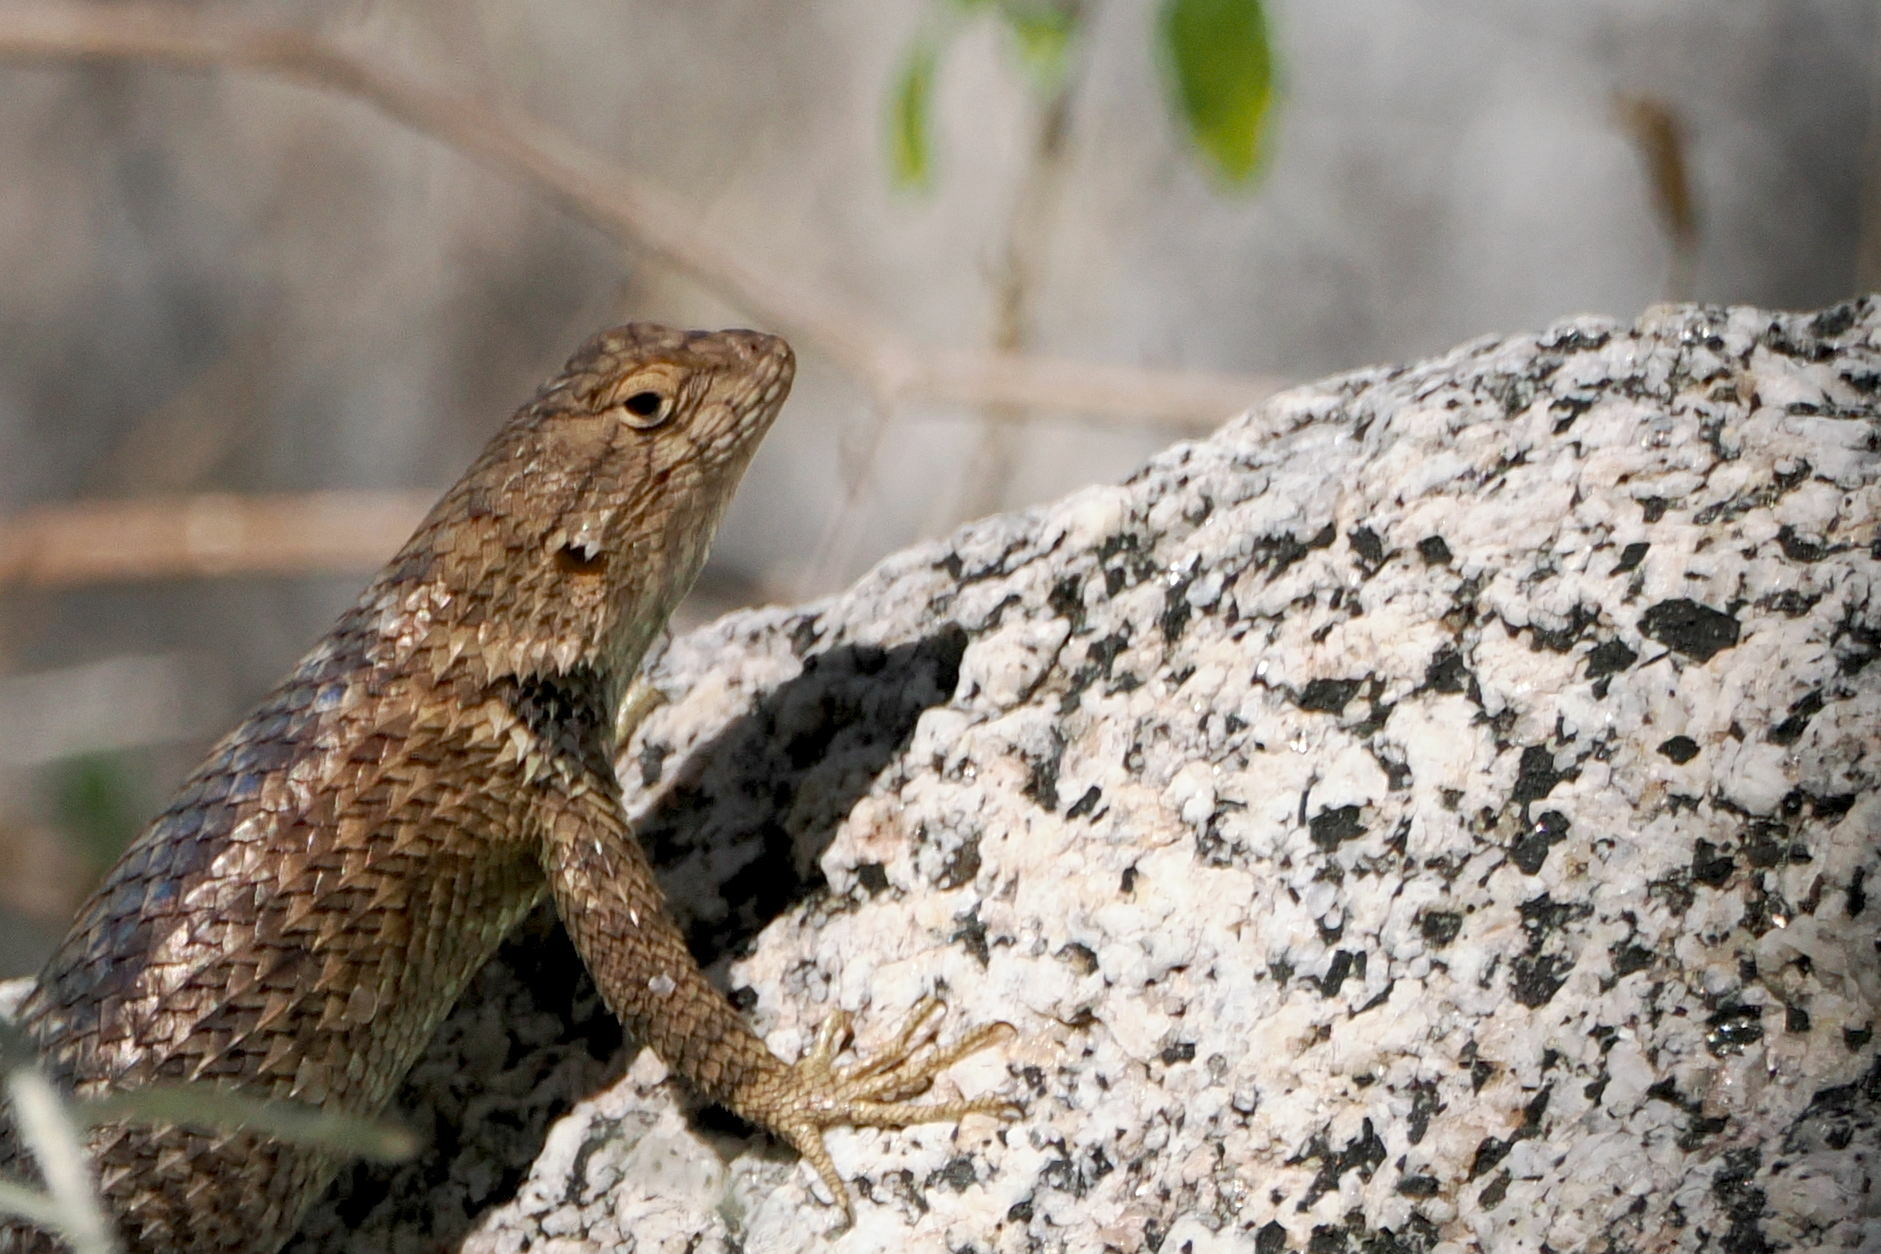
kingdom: Animalia
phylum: Chordata
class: Squamata
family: Phrynosomatidae
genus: Sceloporus
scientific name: Sceloporus orcutti
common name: Granite spiny lizard
